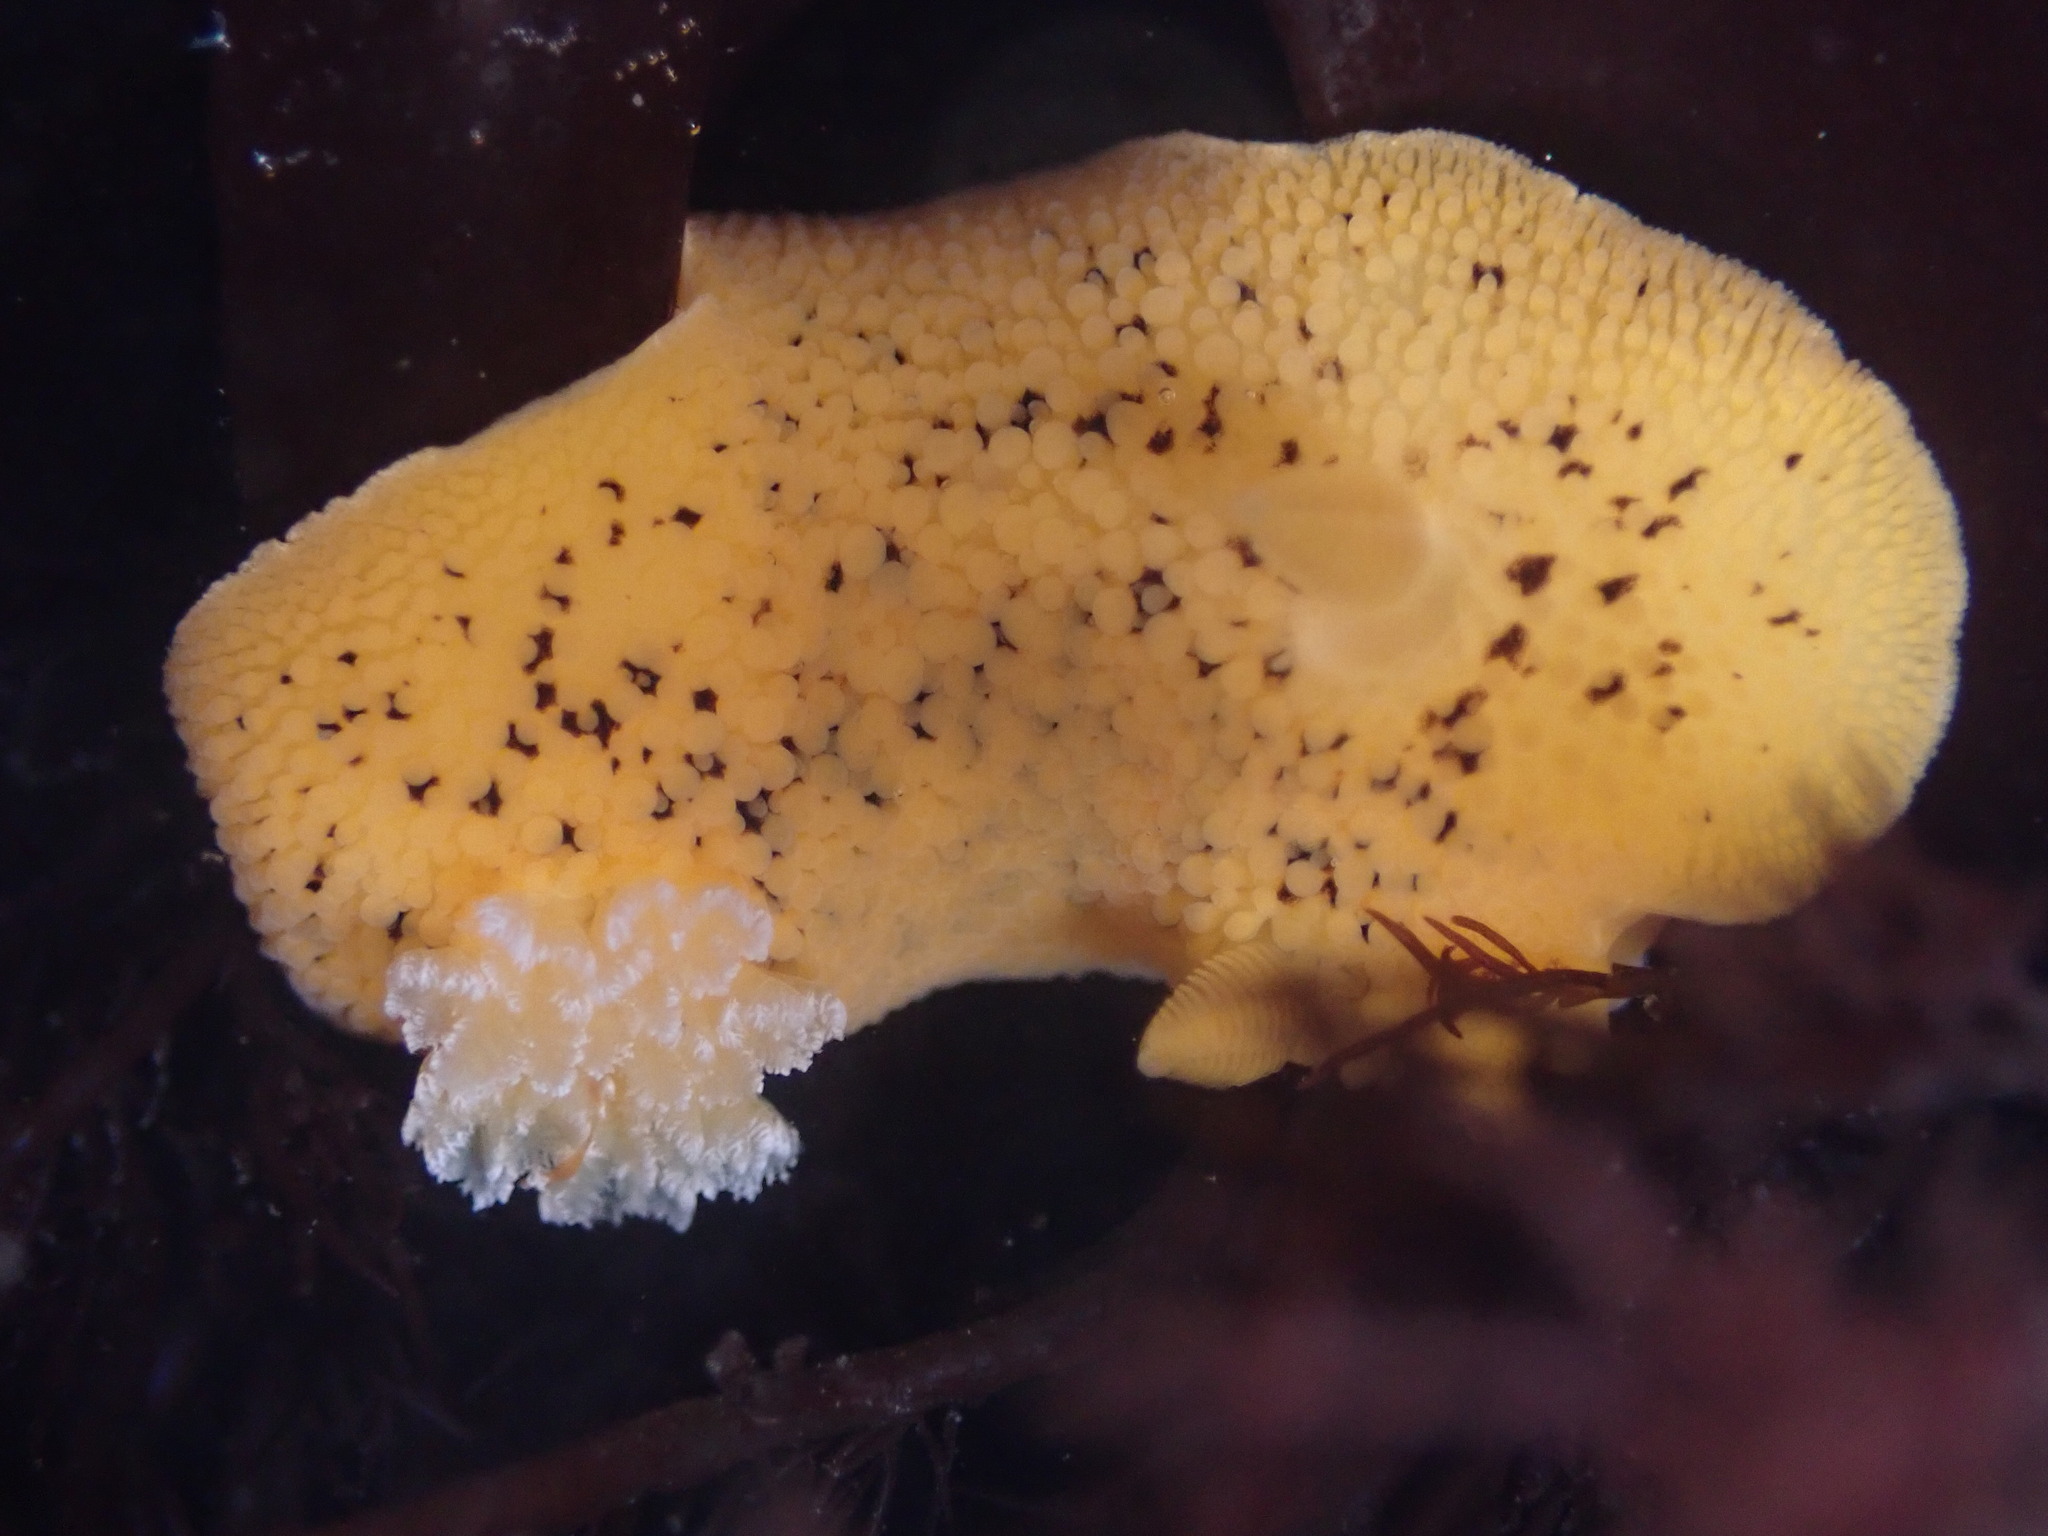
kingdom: Animalia
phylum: Mollusca
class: Gastropoda
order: Nudibranchia
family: Discodorididae
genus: Peltodoris
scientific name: Peltodoris nobilis
